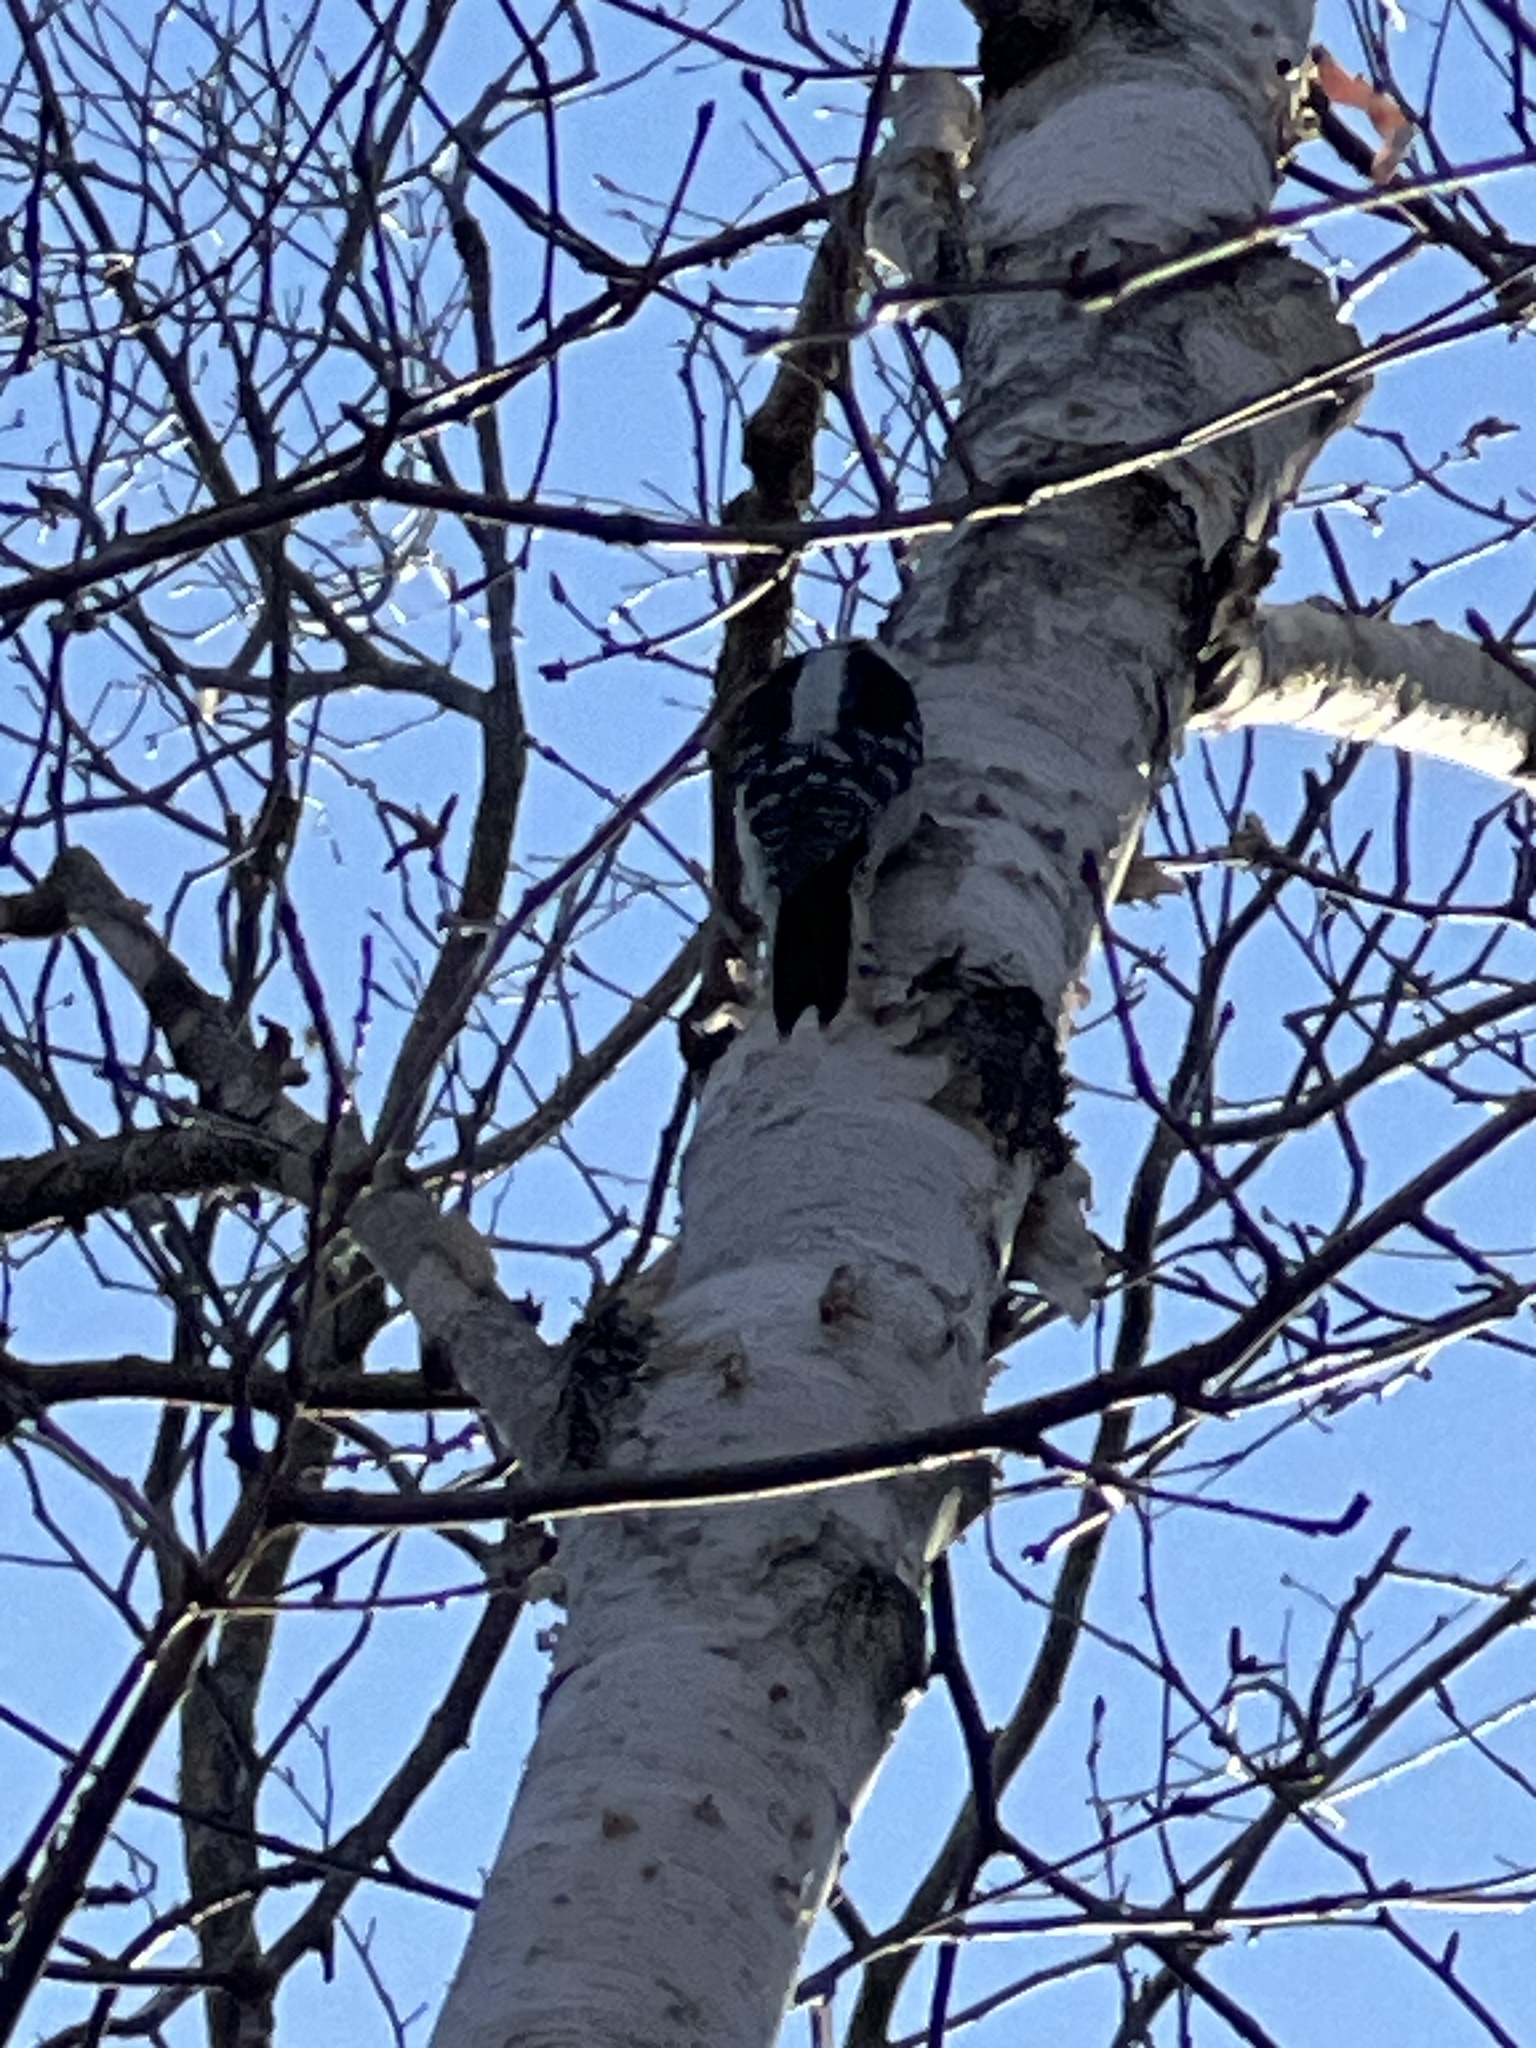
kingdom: Animalia
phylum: Chordata
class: Aves
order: Piciformes
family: Picidae
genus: Dryobates
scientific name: Dryobates pubescens
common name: Downy woodpecker
